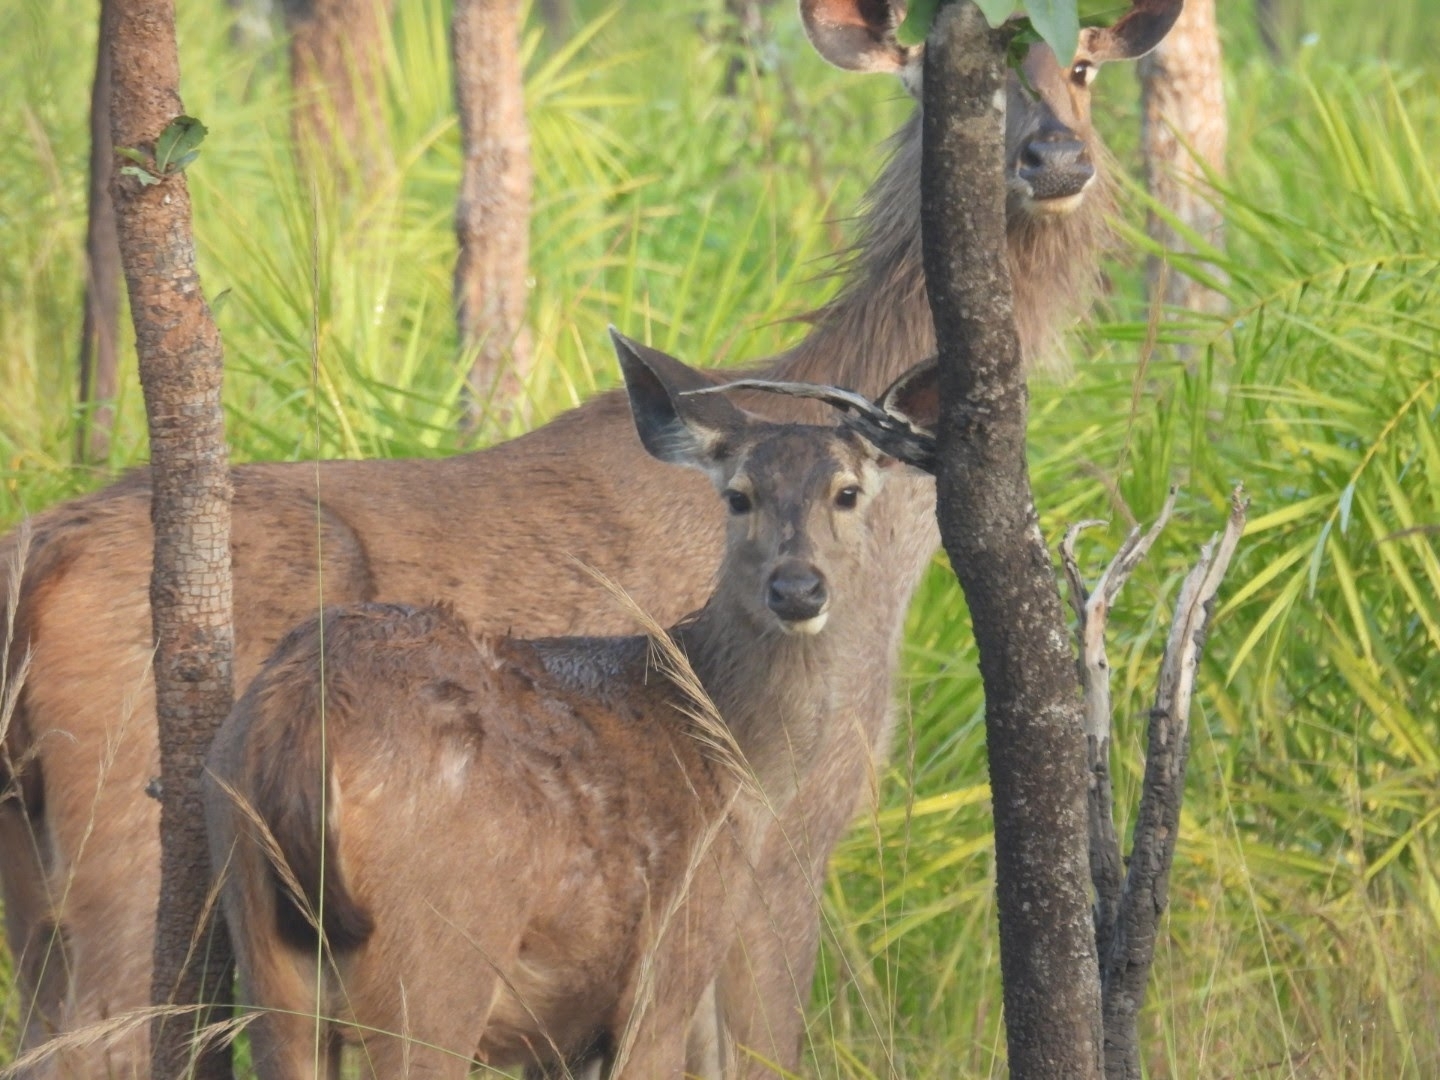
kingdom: Animalia
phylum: Chordata
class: Mammalia
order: Artiodactyla
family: Cervidae
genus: Rusa
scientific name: Rusa unicolor
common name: Sambar
